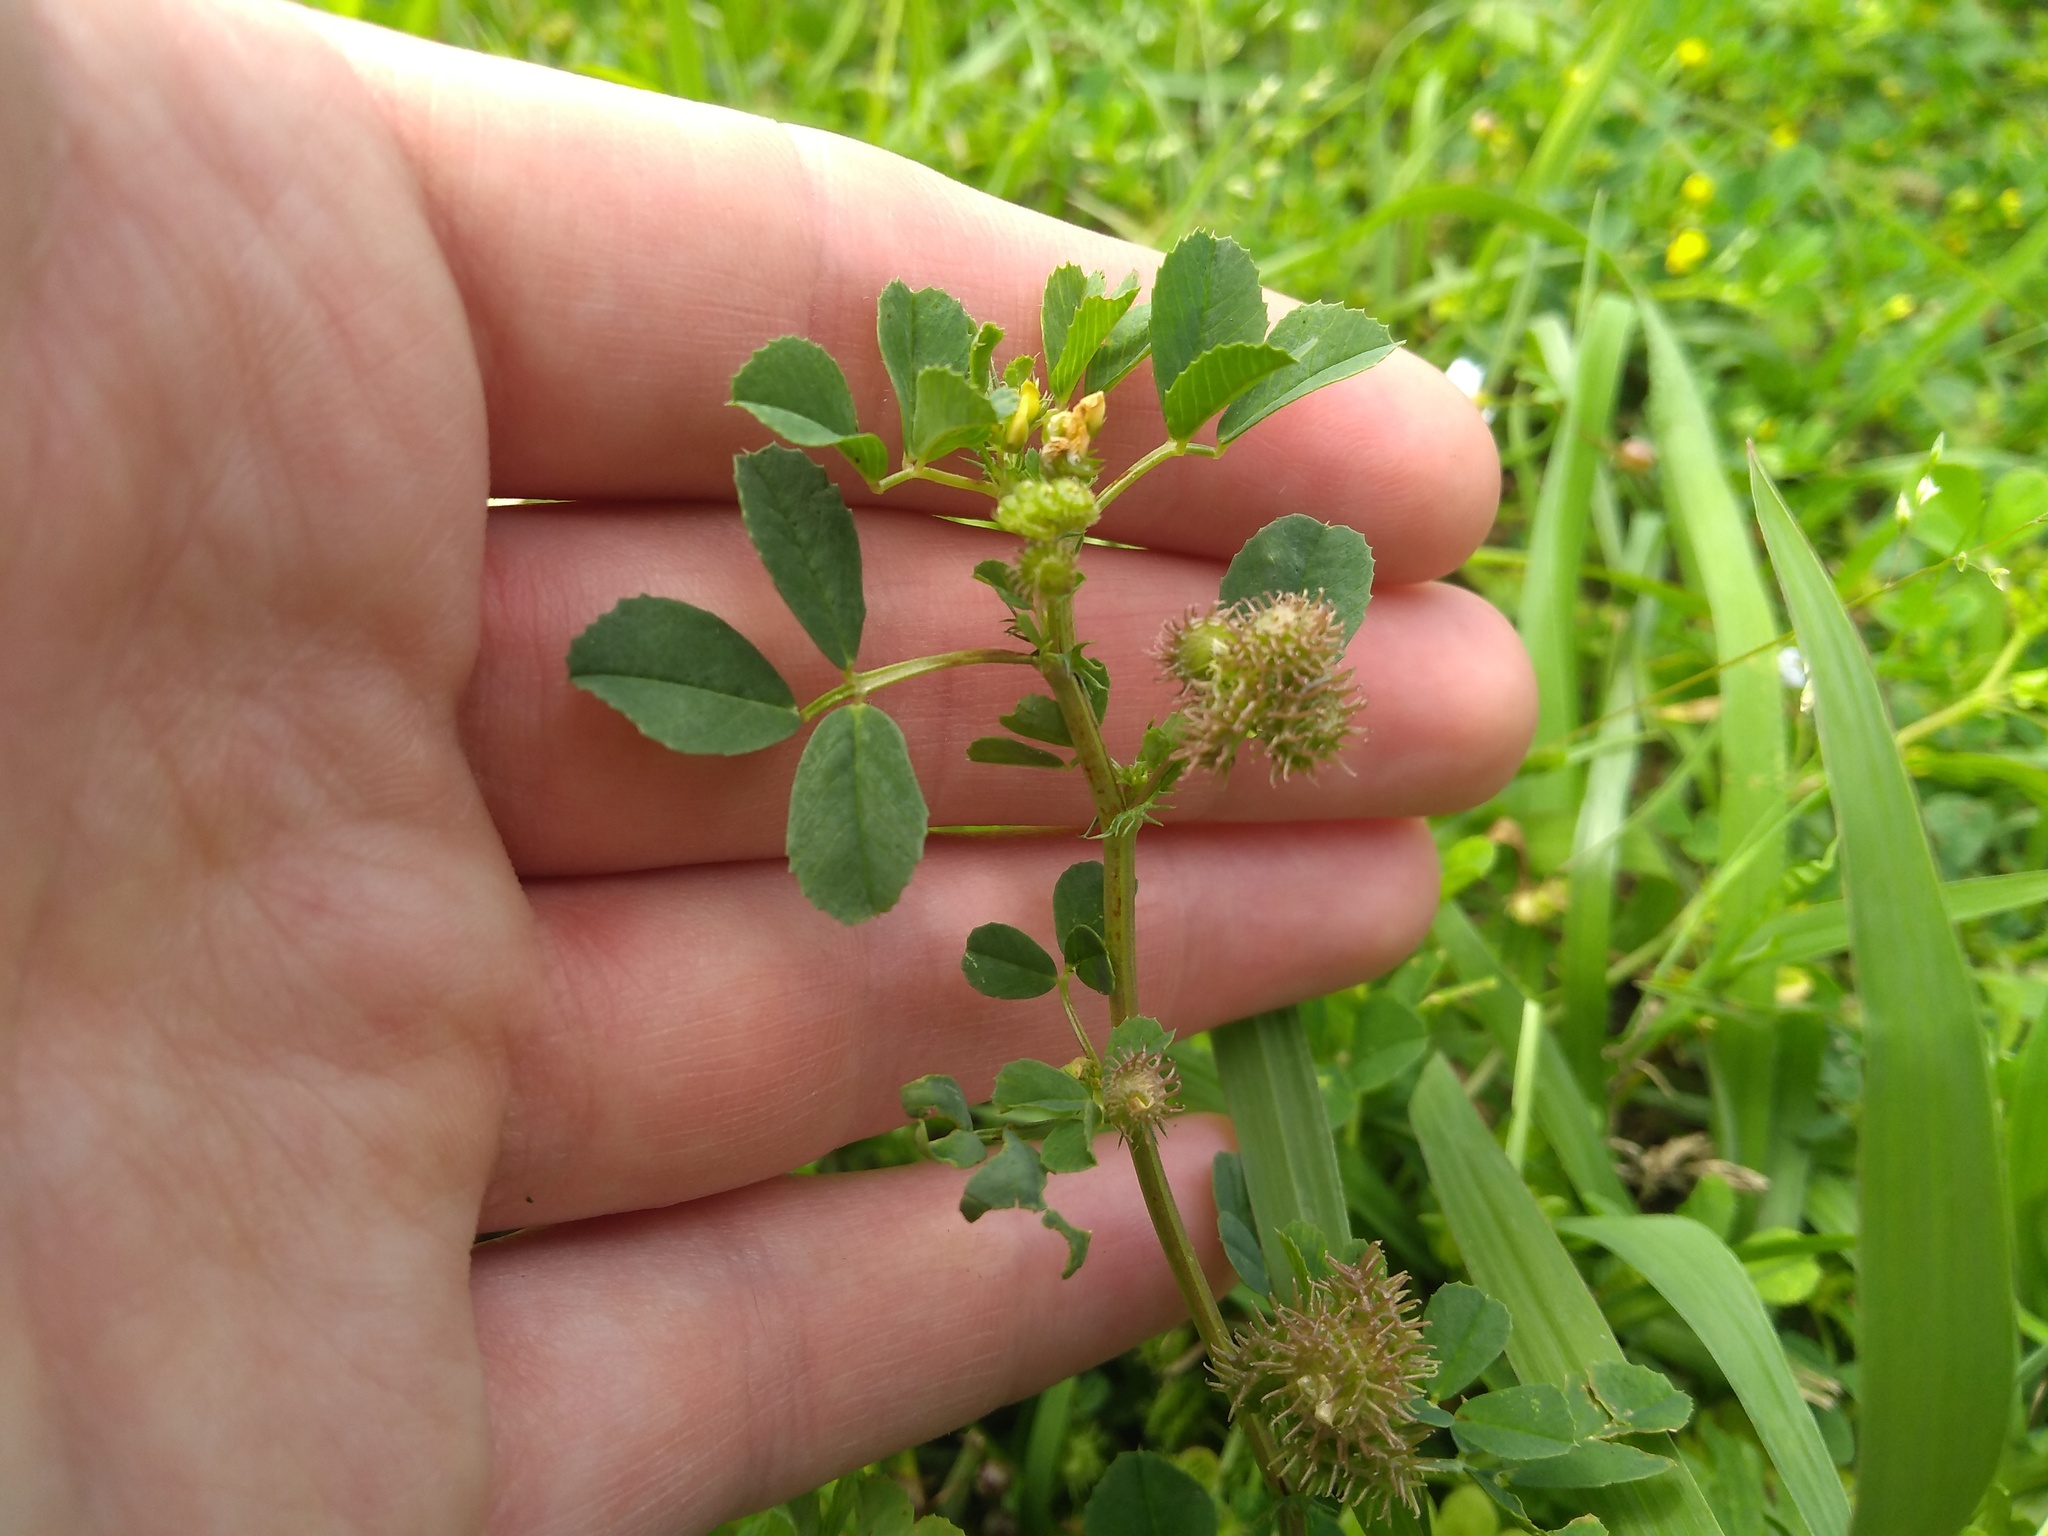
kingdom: Plantae
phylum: Tracheophyta
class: Magnoliopsida
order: Fabales
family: Fabaceae
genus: Medicago
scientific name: Medicago polymorpha
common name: Burclover
